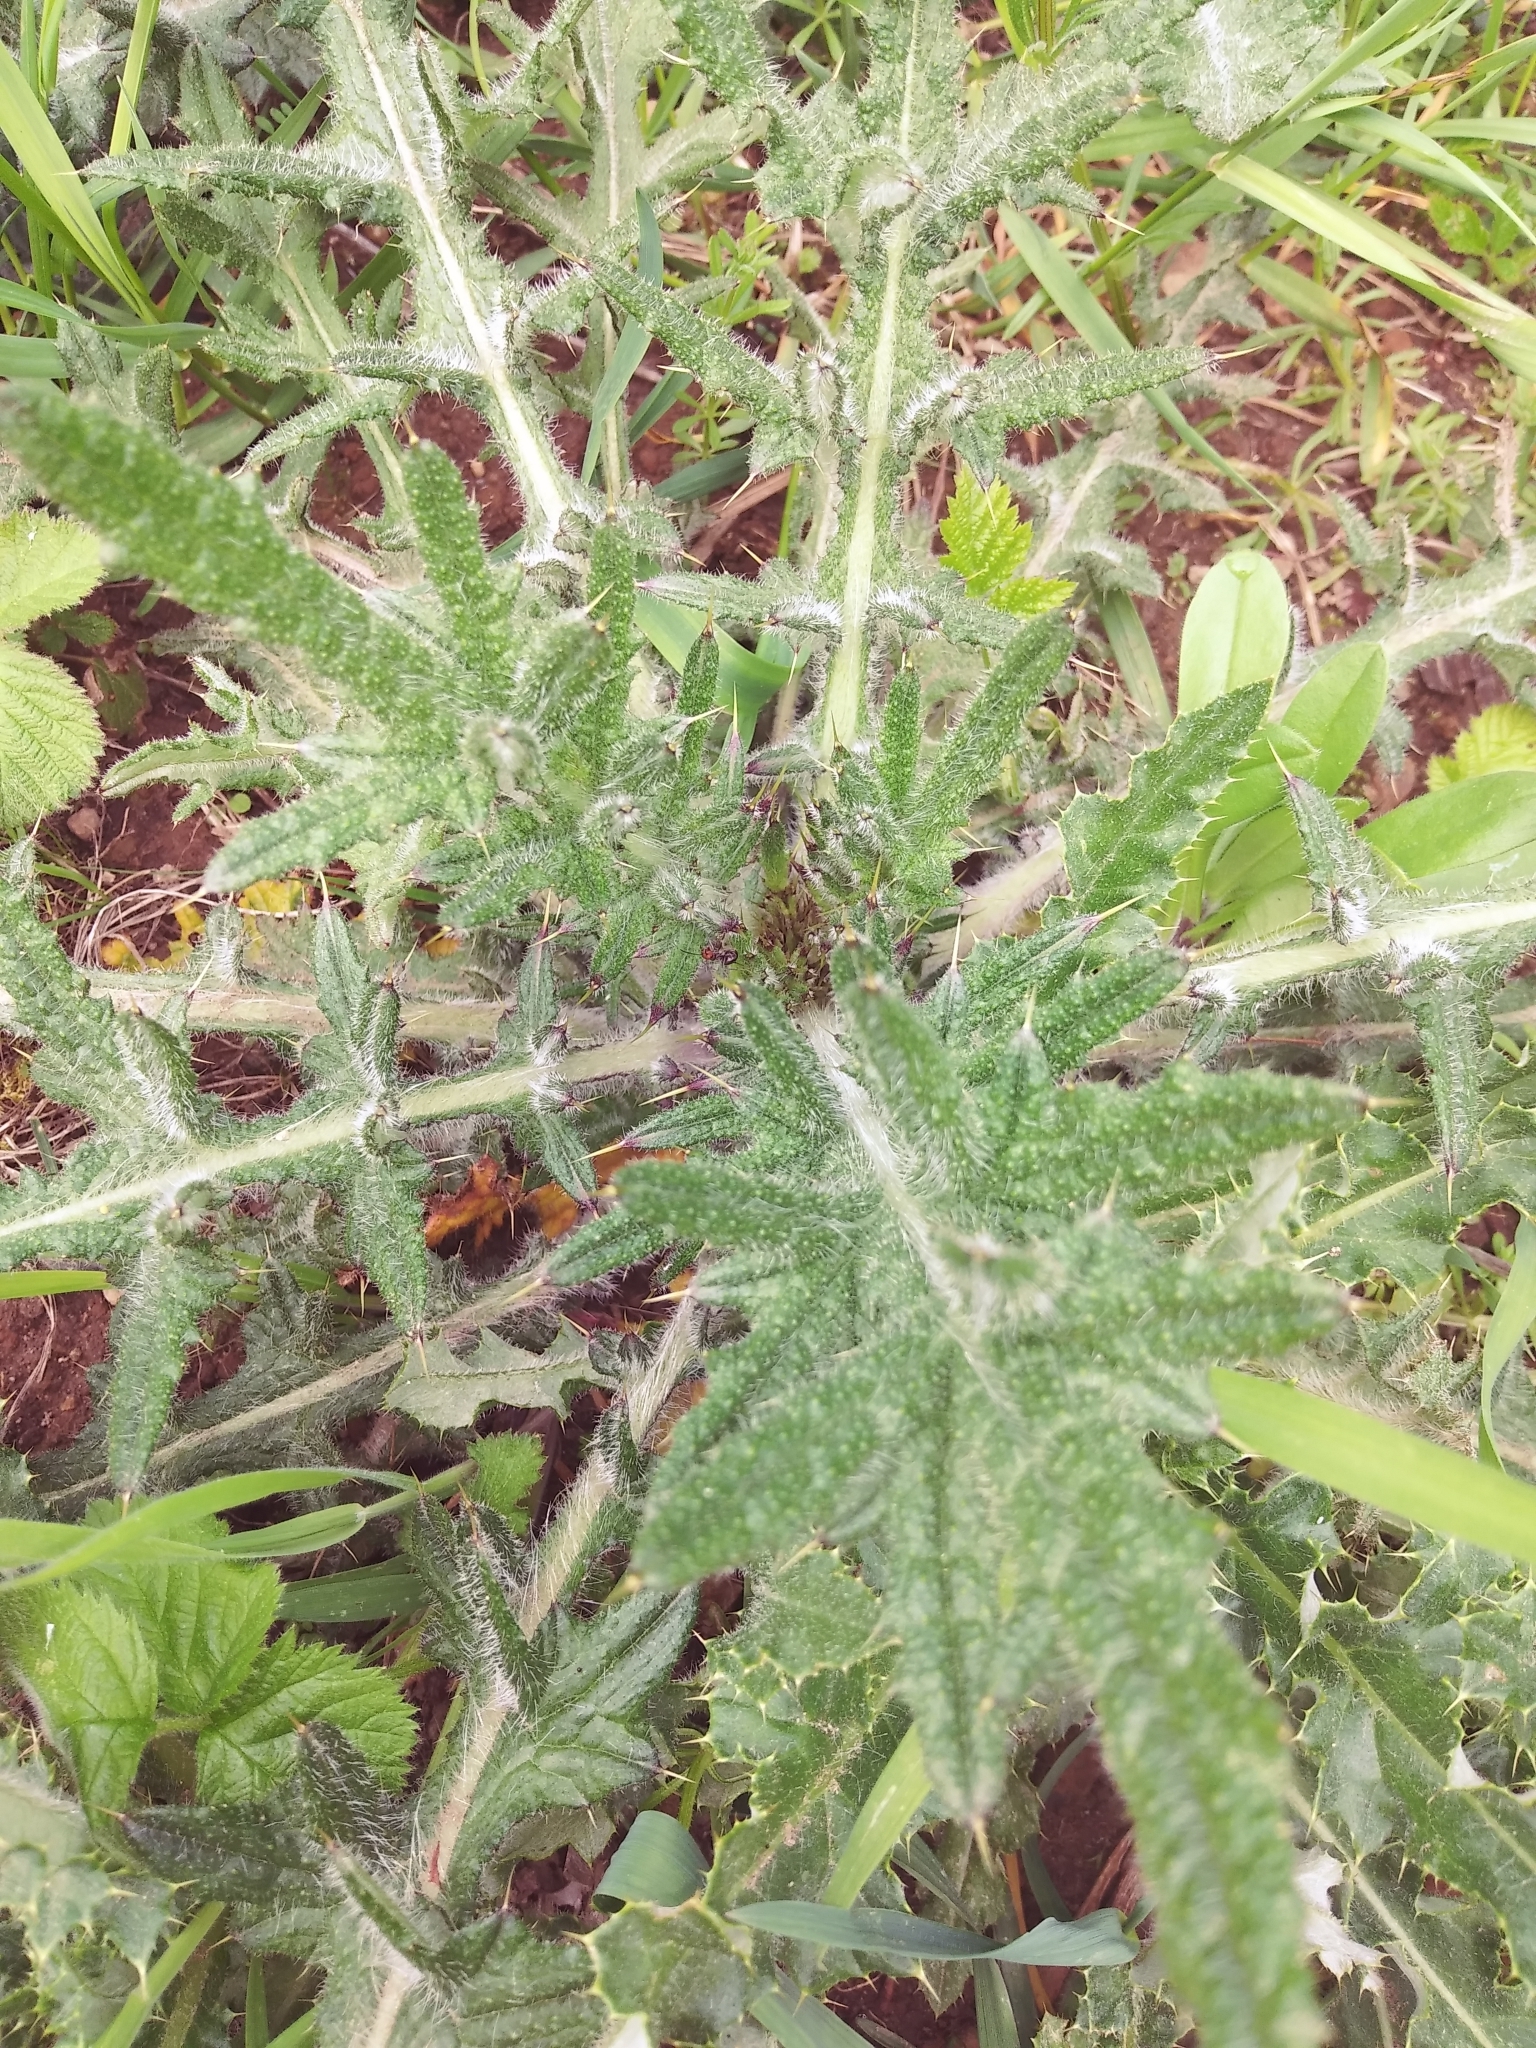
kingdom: Plantae
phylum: Tracheophyta
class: Magnoliopsida
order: Asterales
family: Asteraceae
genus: Cirsium
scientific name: Cirsium vulgare
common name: Bull thistle
